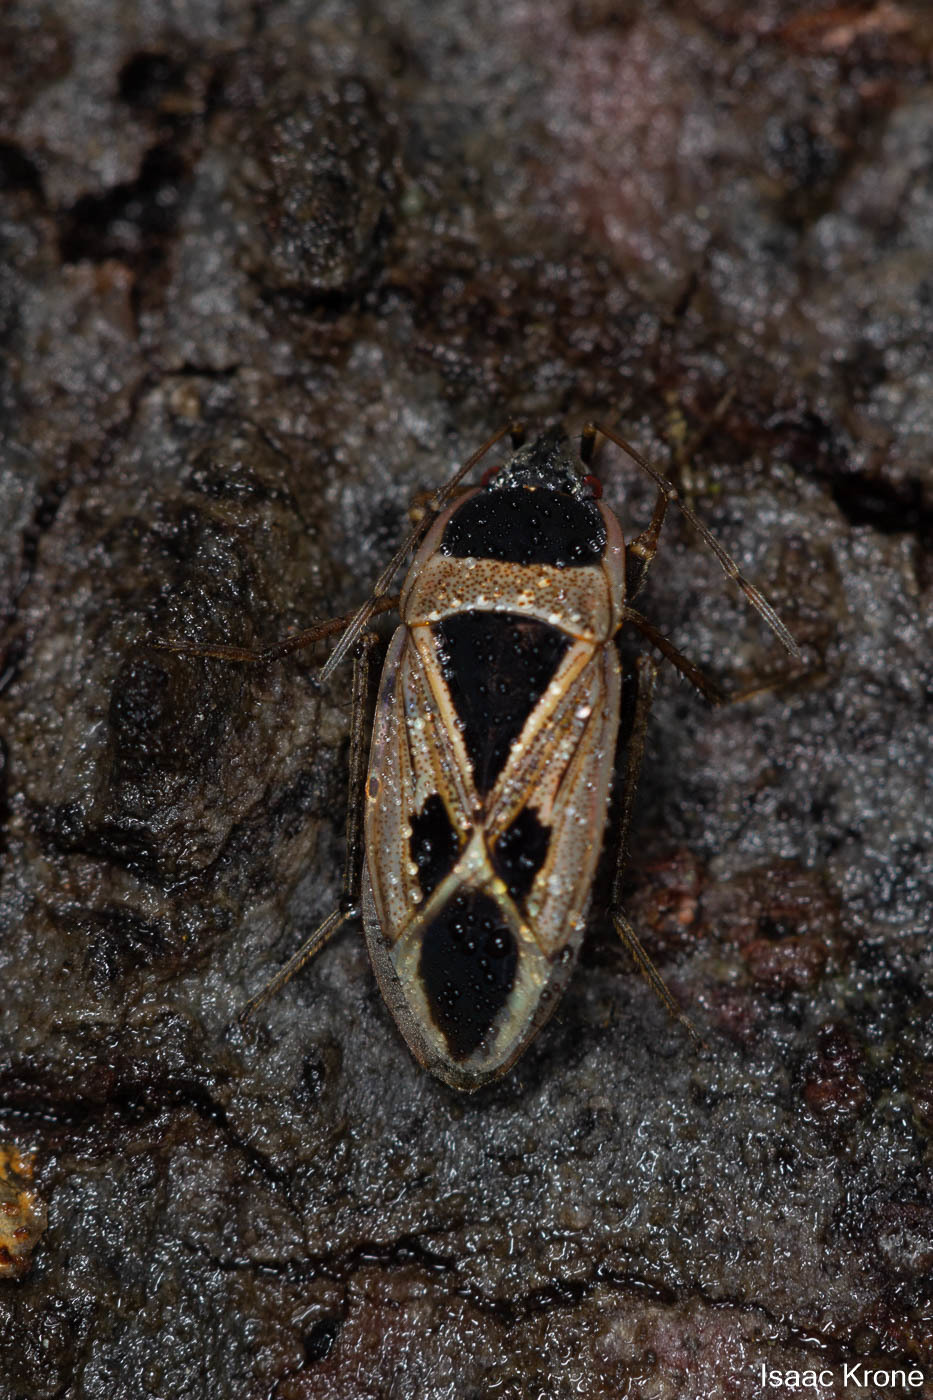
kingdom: Animalia
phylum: Arthropoda
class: Insecta
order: Hemiptera
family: Rhyparochromidae
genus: Xanthochilus
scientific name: Xanthochilus saturnius
